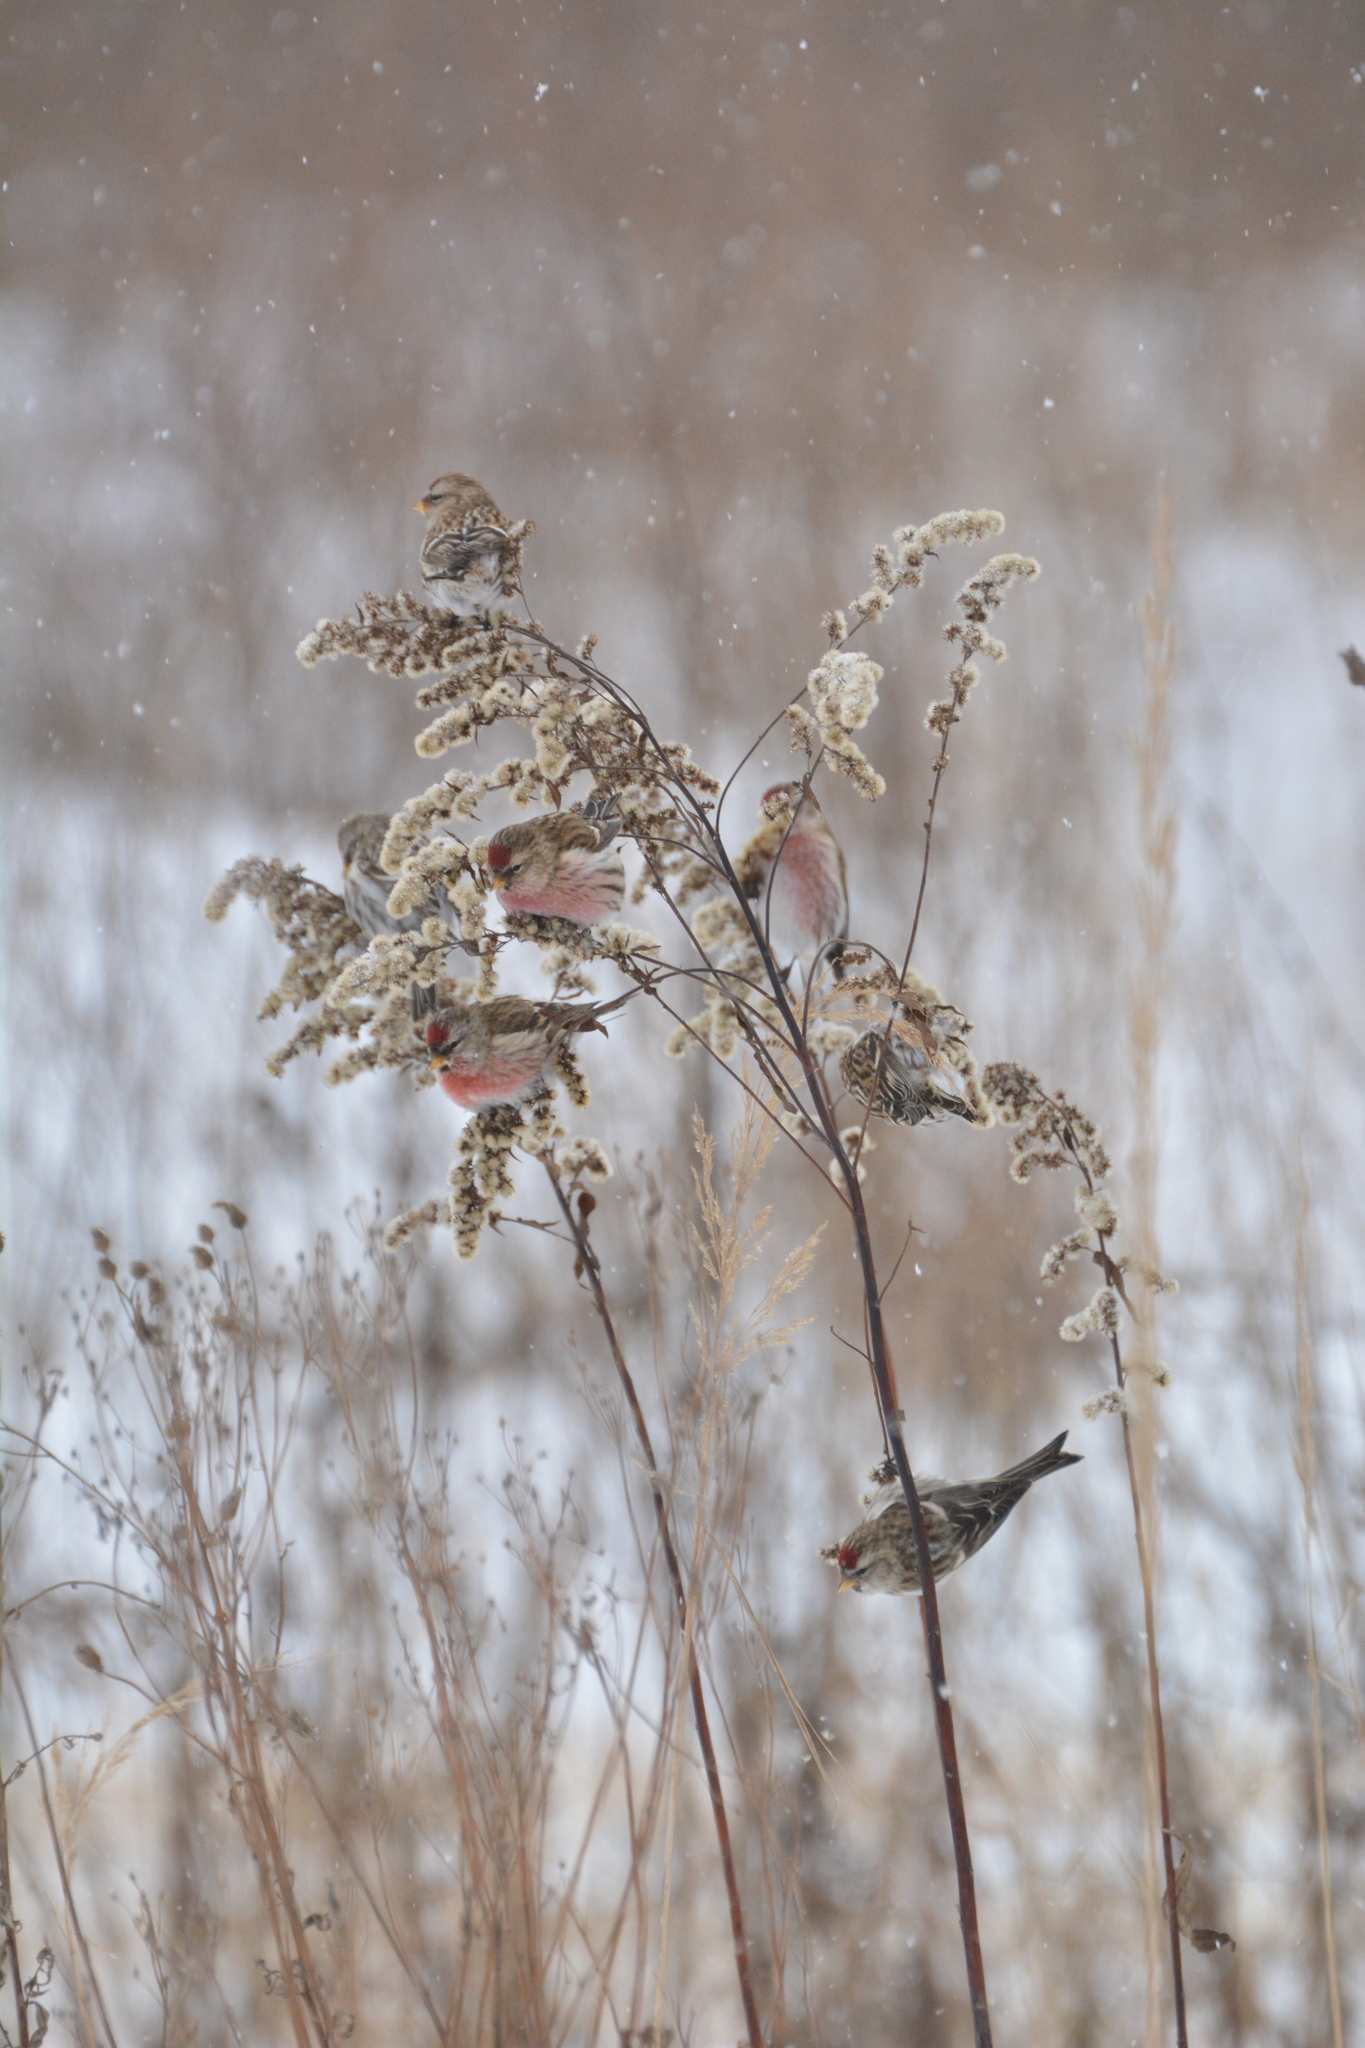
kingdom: Animalia
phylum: Chordata
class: Aves
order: Passeriformes
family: Fringillidae
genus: Acanthis
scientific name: Acanthis flammea
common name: Common redpoll
